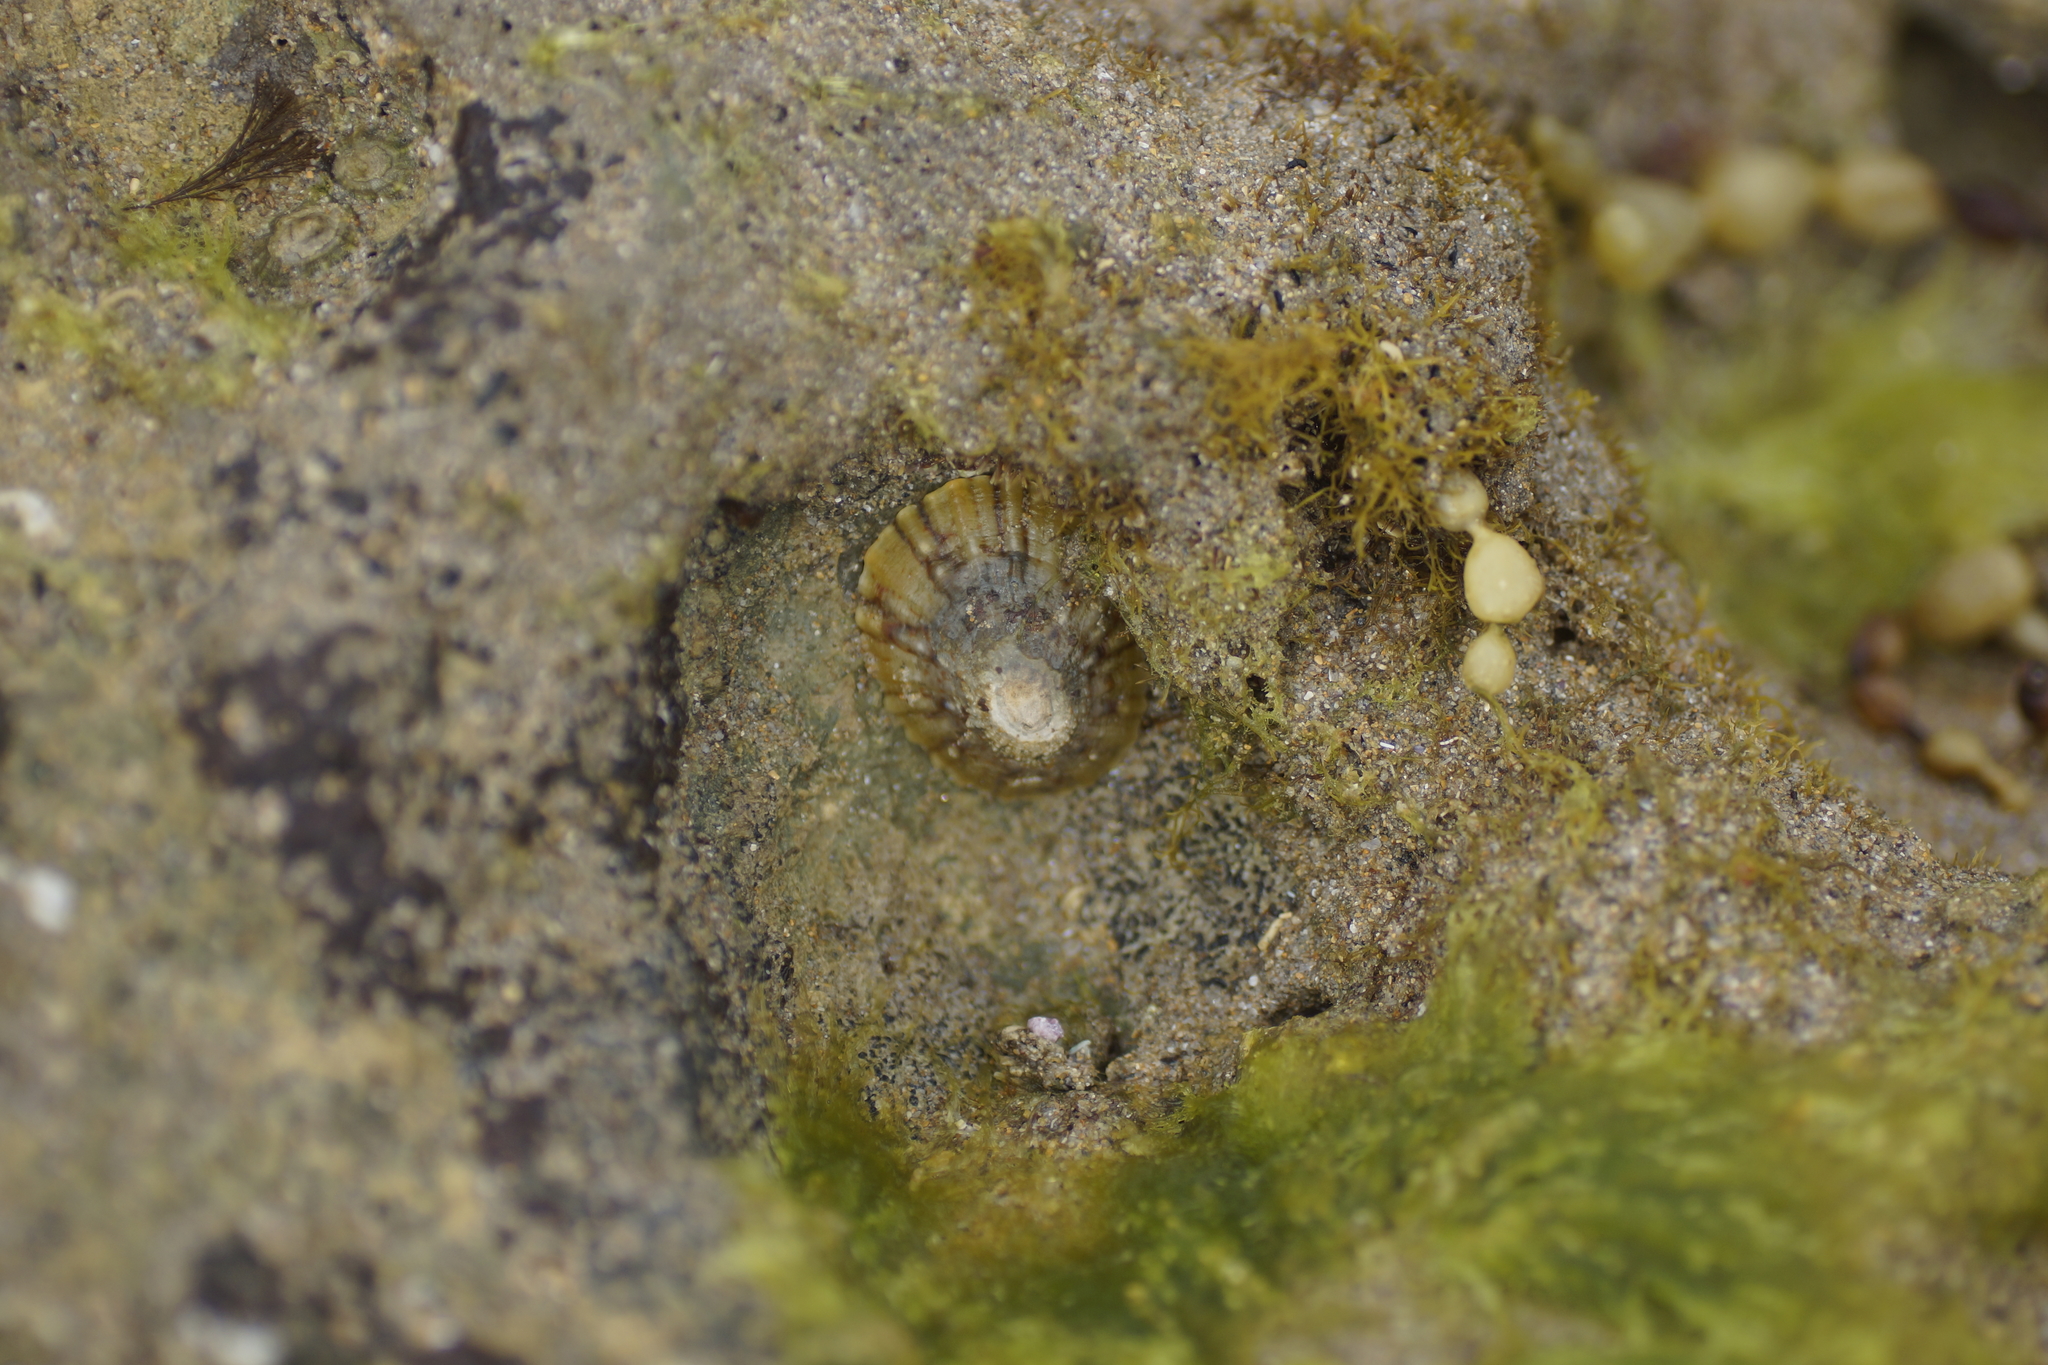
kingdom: Animalia
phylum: Mollusca
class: Gastropoda
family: Nacellidae
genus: Cellana
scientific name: Cellana tramoserica
